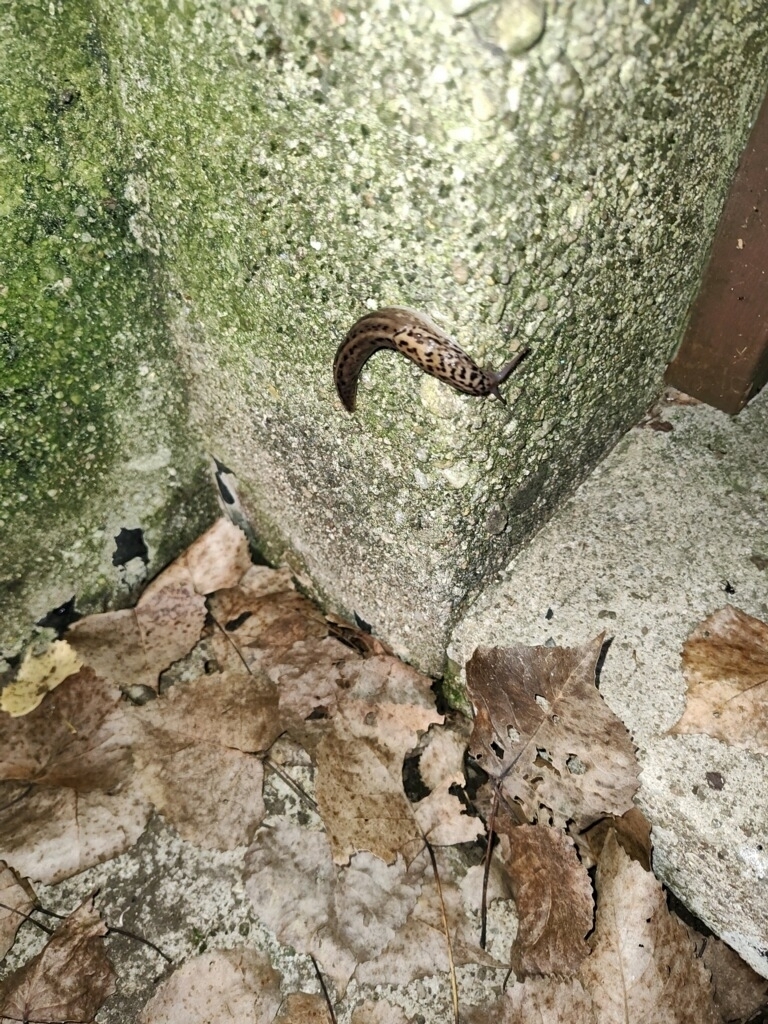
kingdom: Animalia
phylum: Mollusca
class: Gastropoda
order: Stylommatophora
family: Limacidae
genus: Limax
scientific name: Limax maximus
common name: Great grey slug
